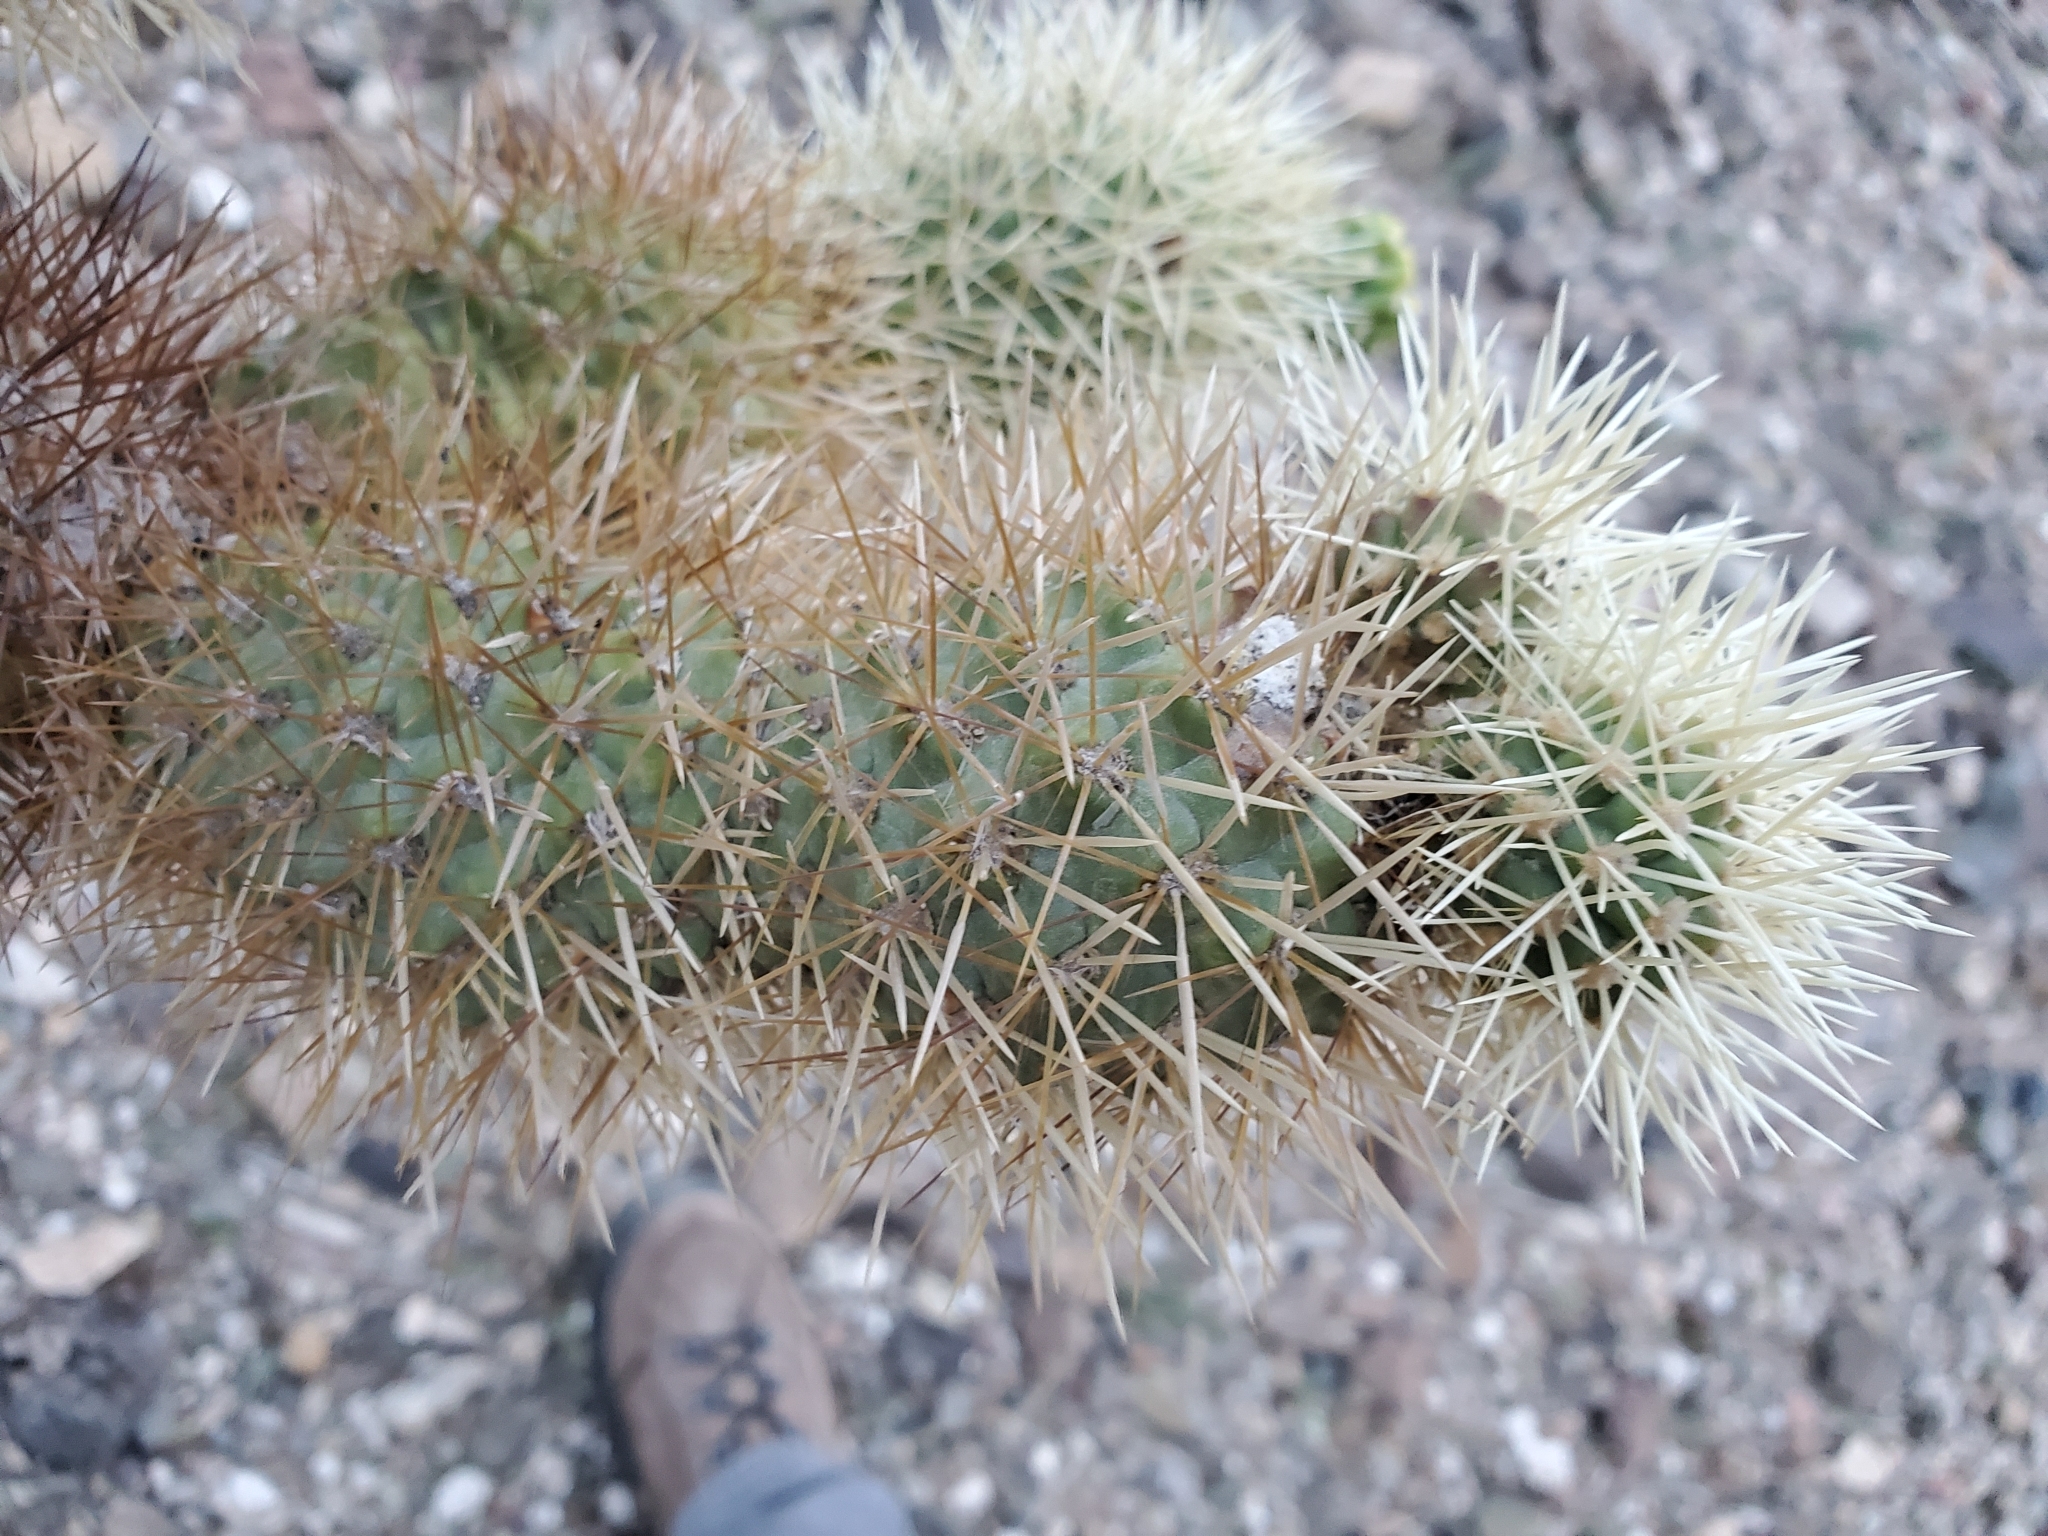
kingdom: Plantae
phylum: Tracheophyta
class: Magnoliopsida
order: Caryophyllales
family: Cactaceae
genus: Cylindropuntia
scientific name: Cylindropuntia fosbergii
